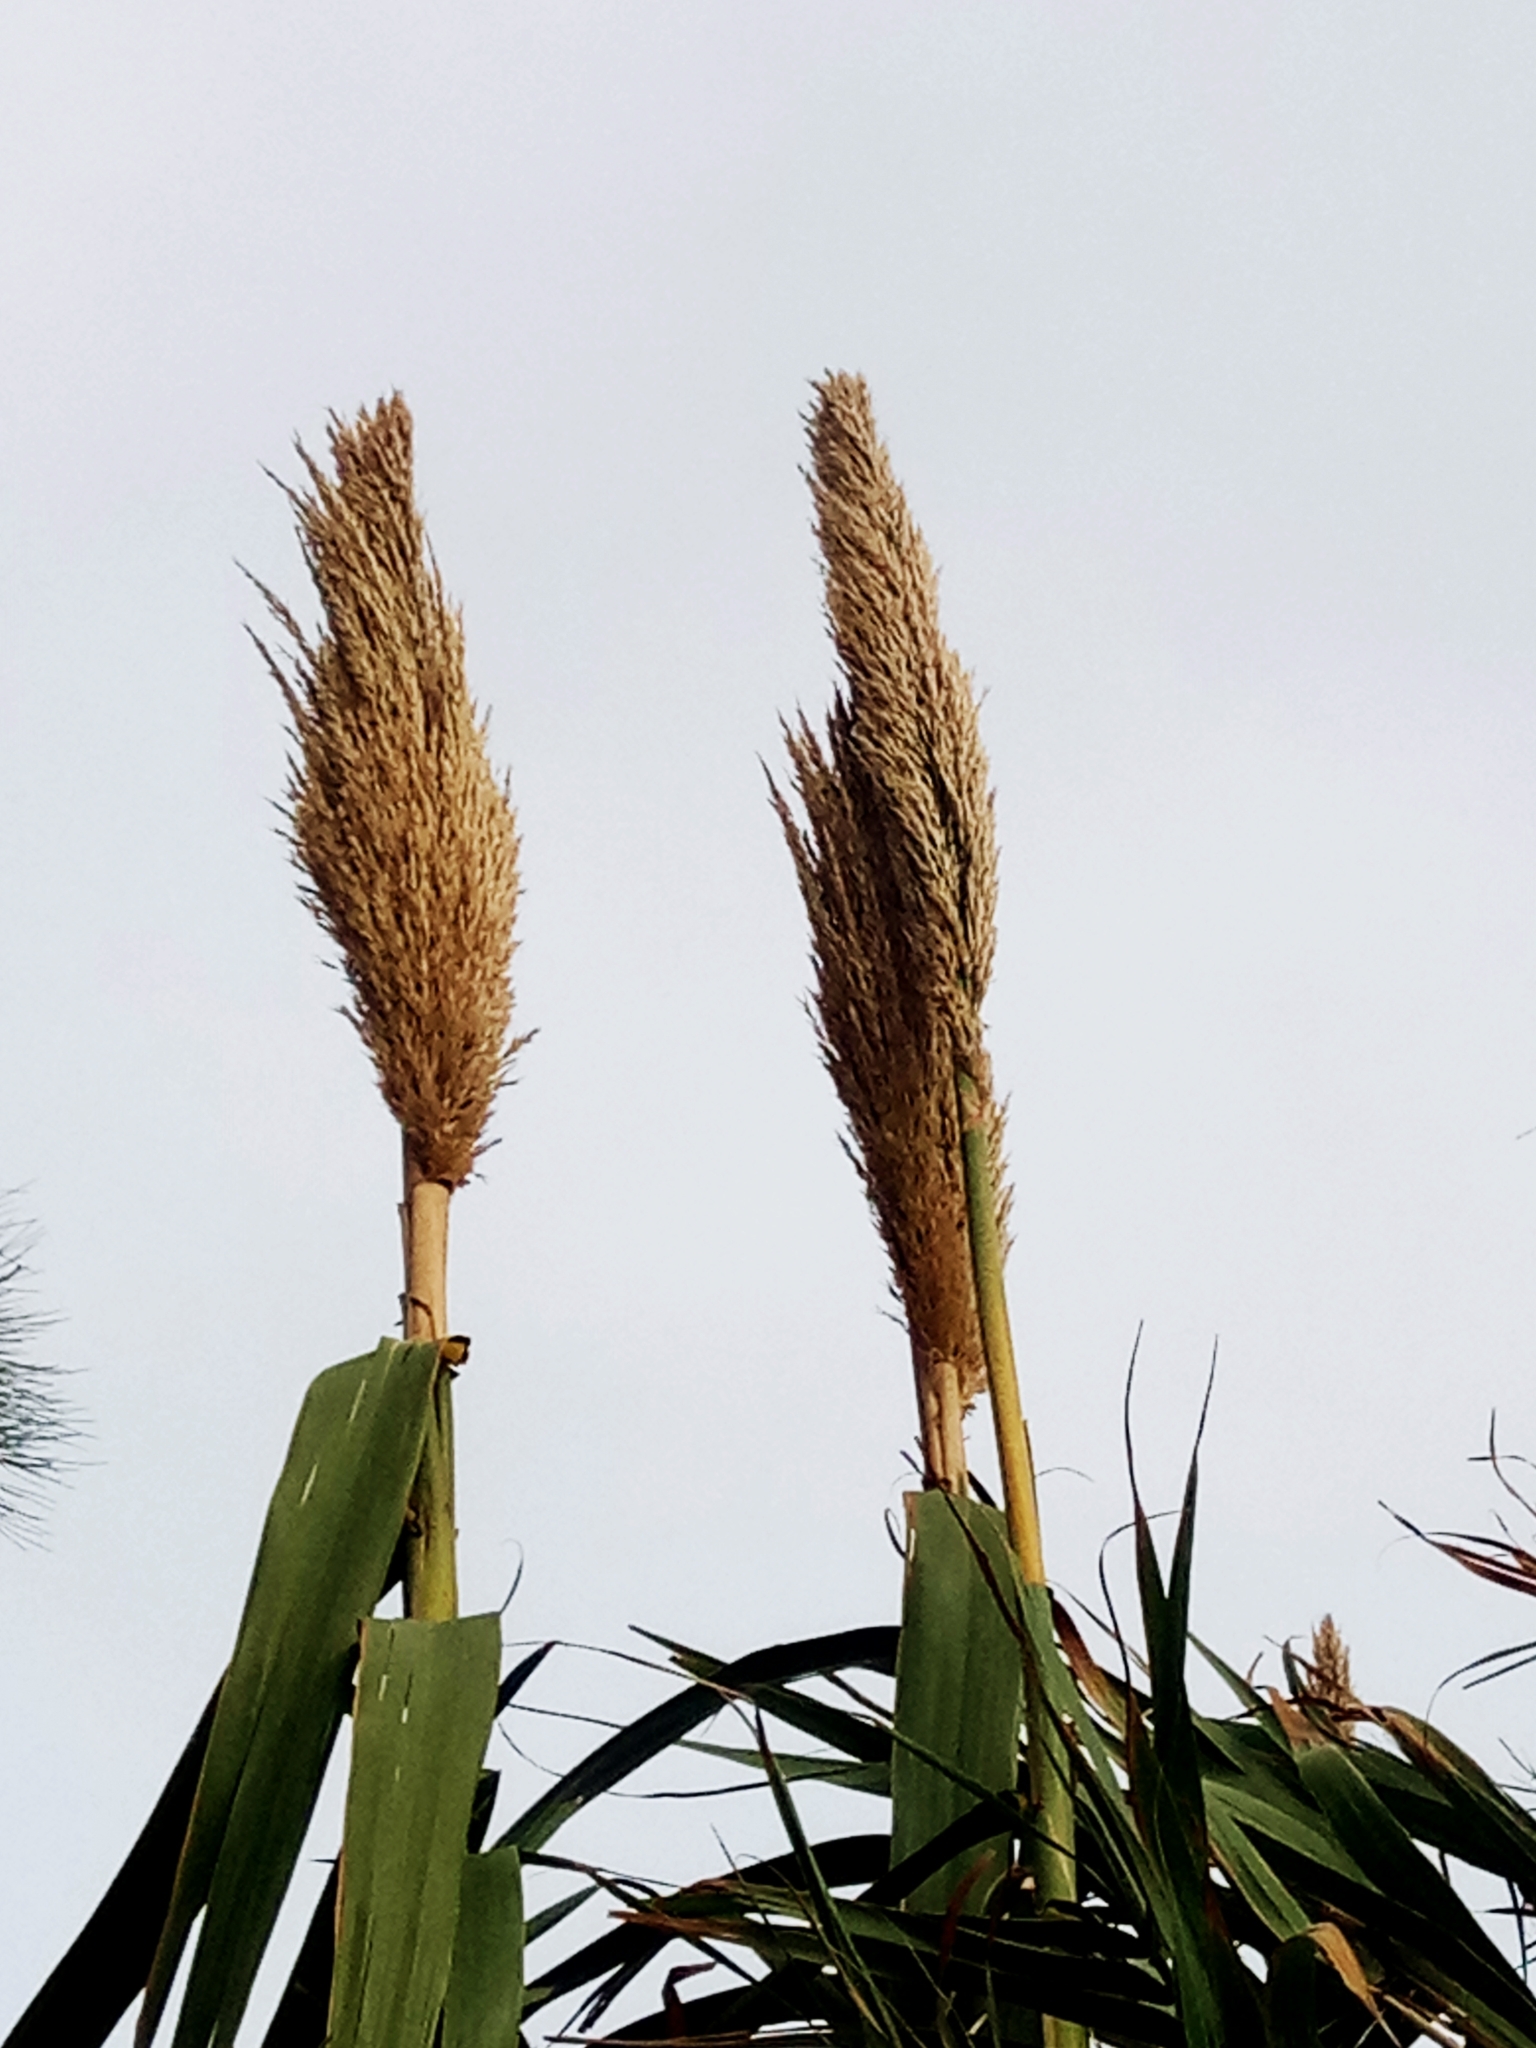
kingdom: Plantae
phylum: Tracheophyta
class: Liliopsida
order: Poales
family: Poaceae
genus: Arundo
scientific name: Arundo donax
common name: Giant reed
